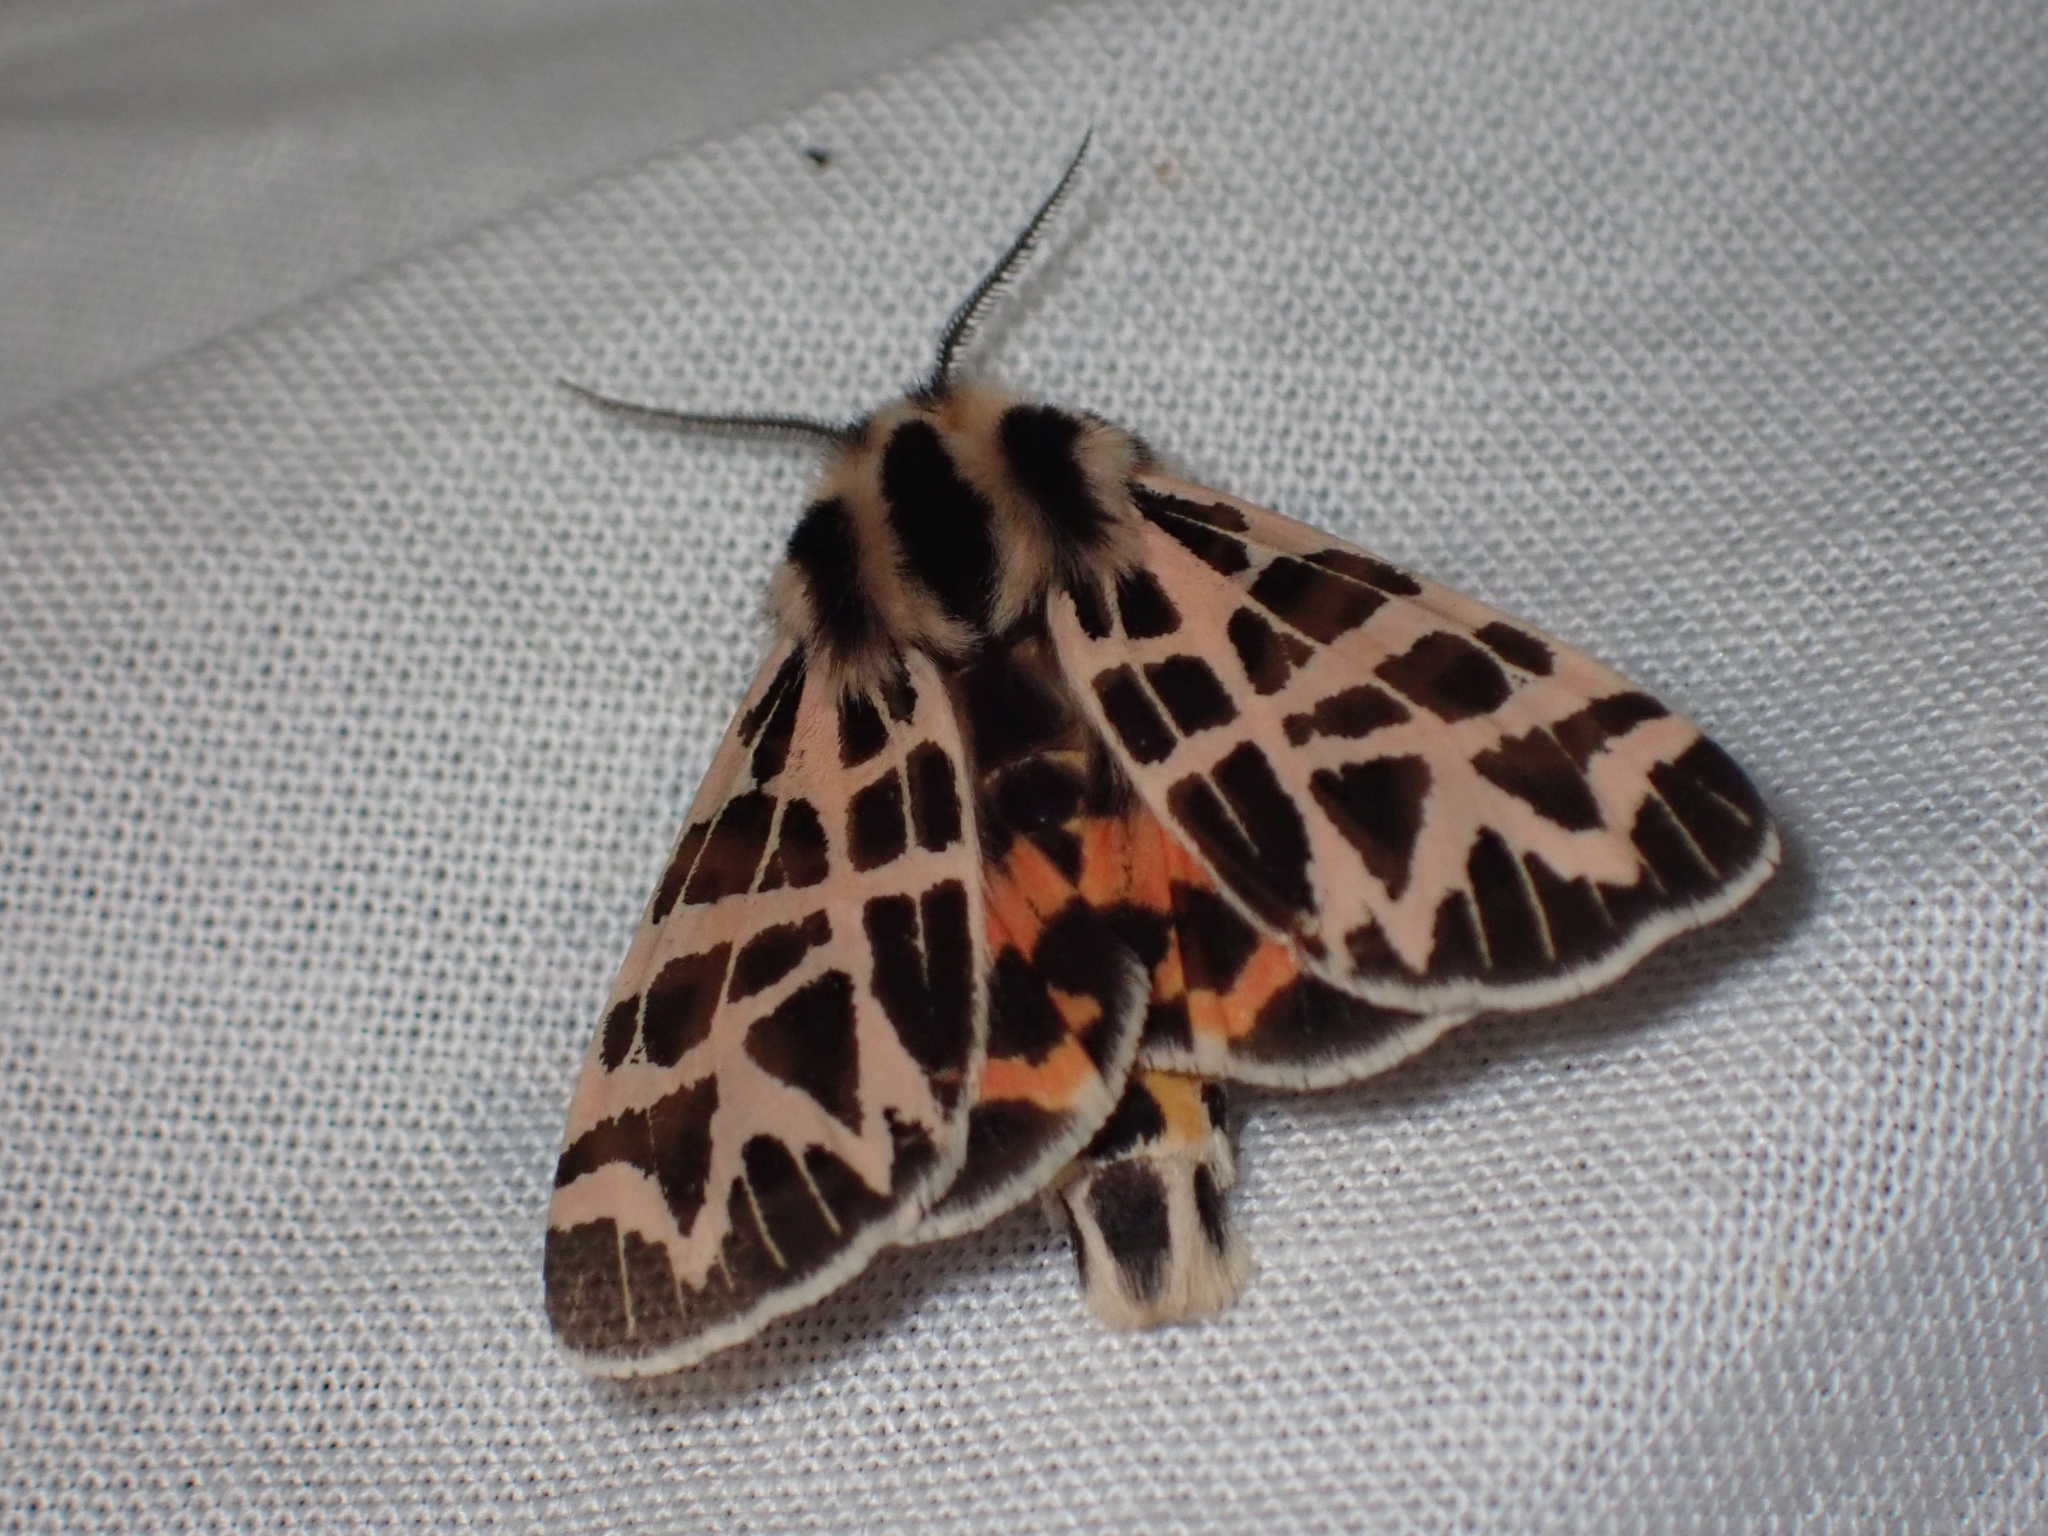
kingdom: Animalia
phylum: Arthropoda
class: Insecta
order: Lepidoptera
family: Erebidae
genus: Apantesis
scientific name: Apantesis
